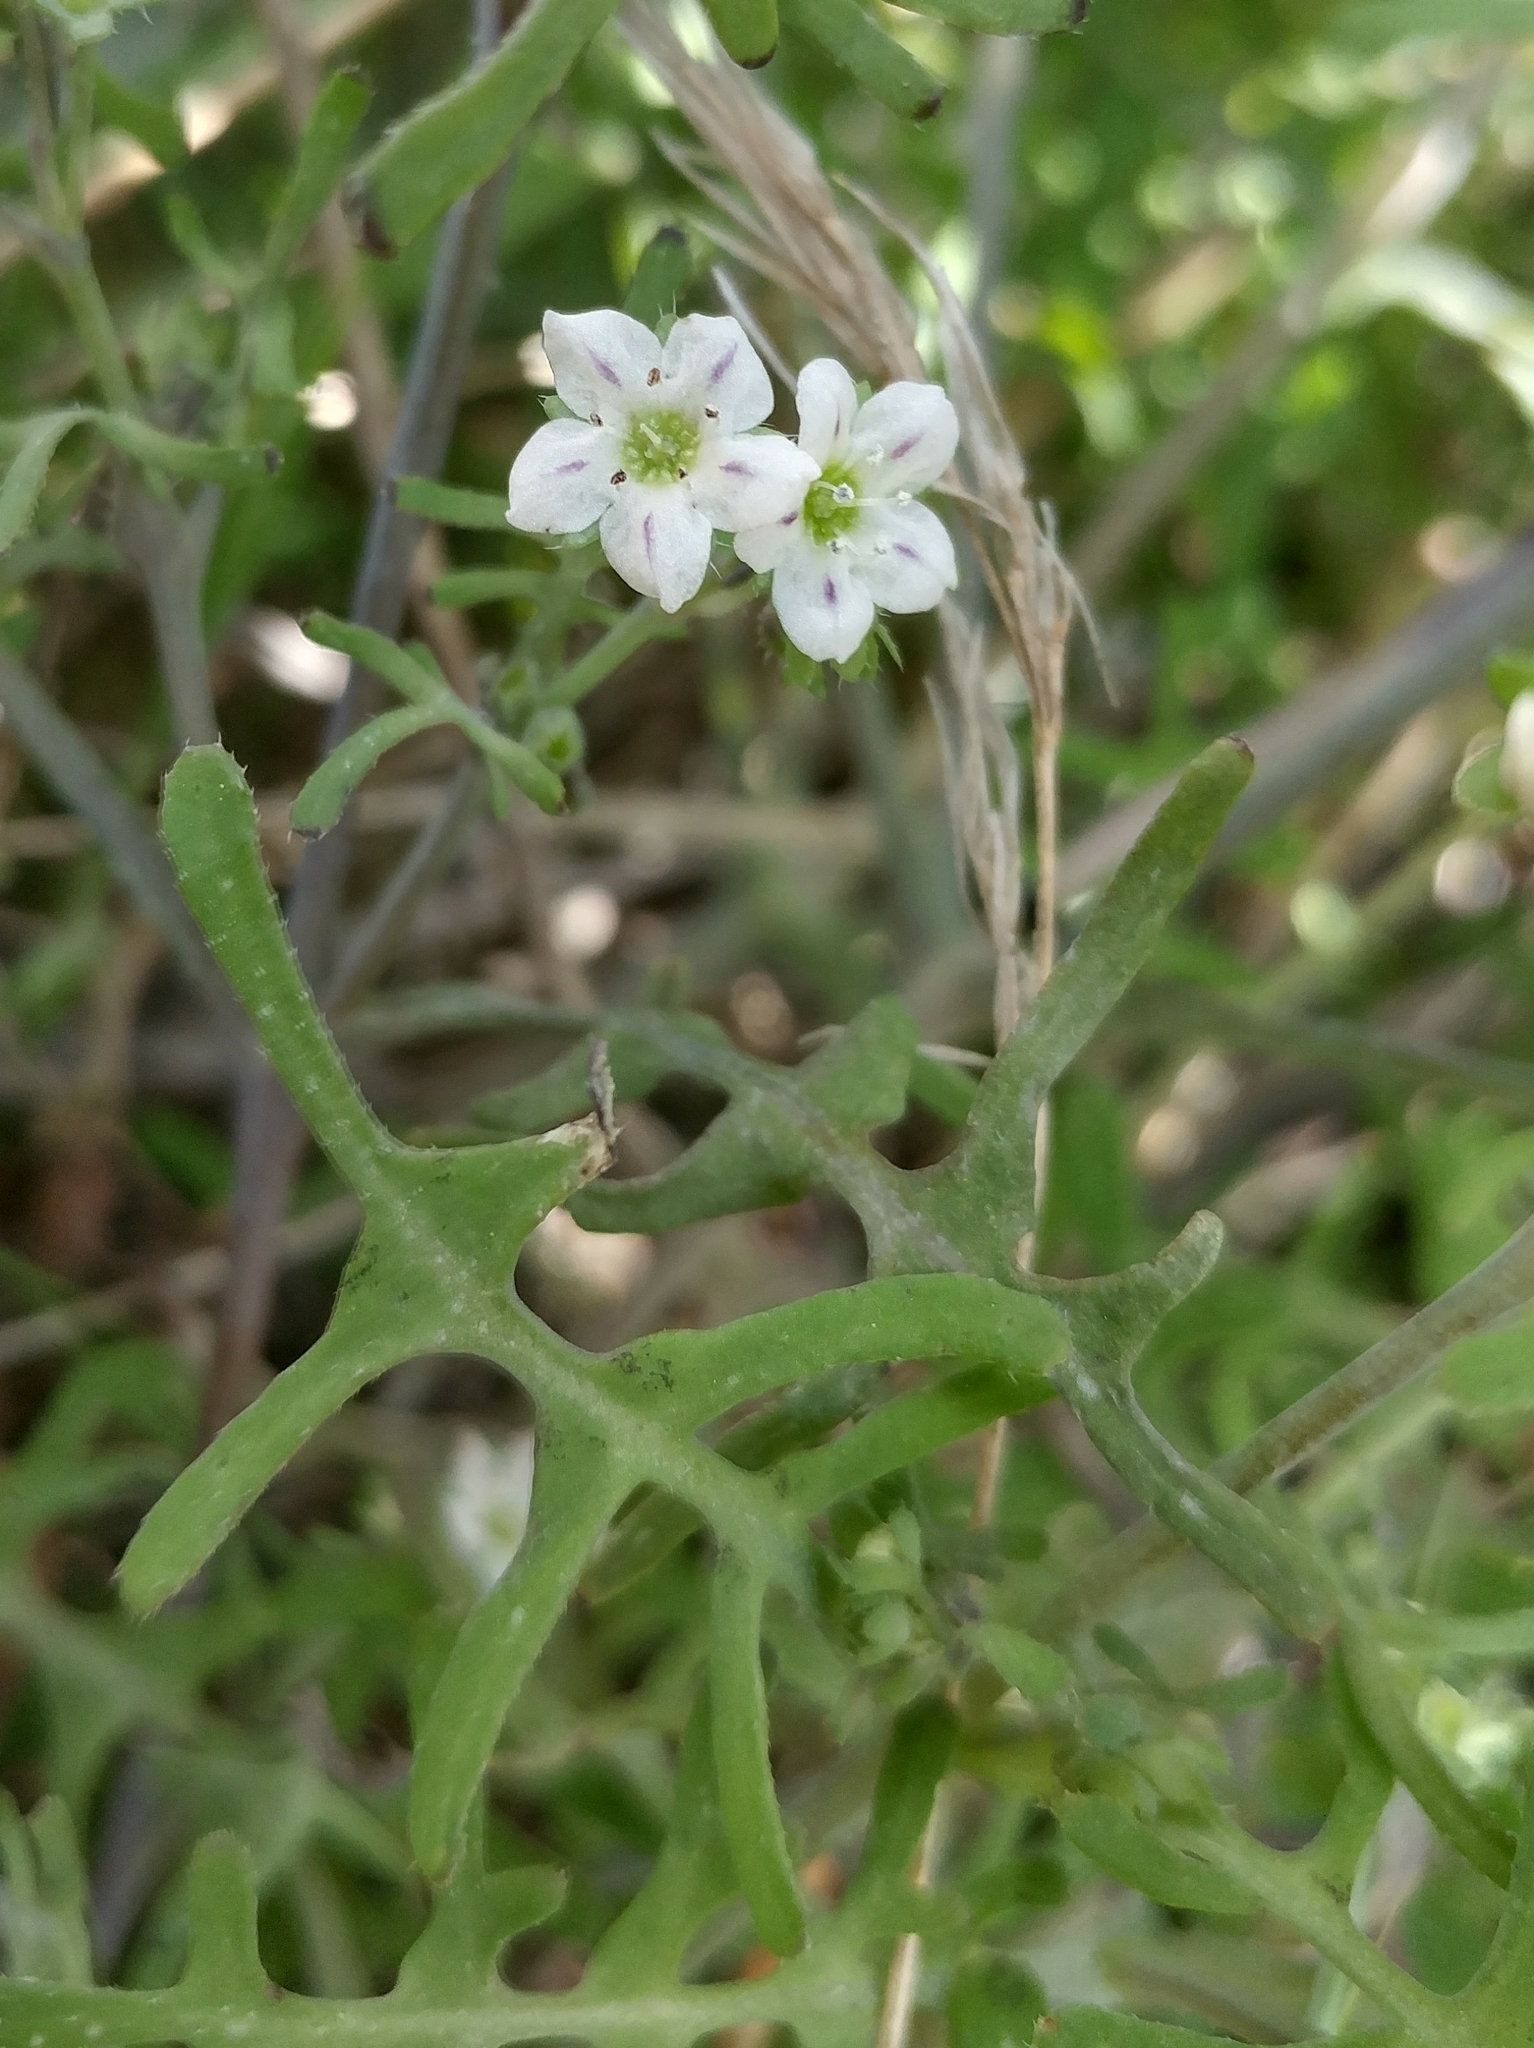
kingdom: Plantae
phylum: Tracheophyta
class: Magnoliopsida
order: Boraginales
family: Hydrophyllaceae
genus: Pholistoma
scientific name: Pholistoma membranaceum
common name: White fiesta-flower
